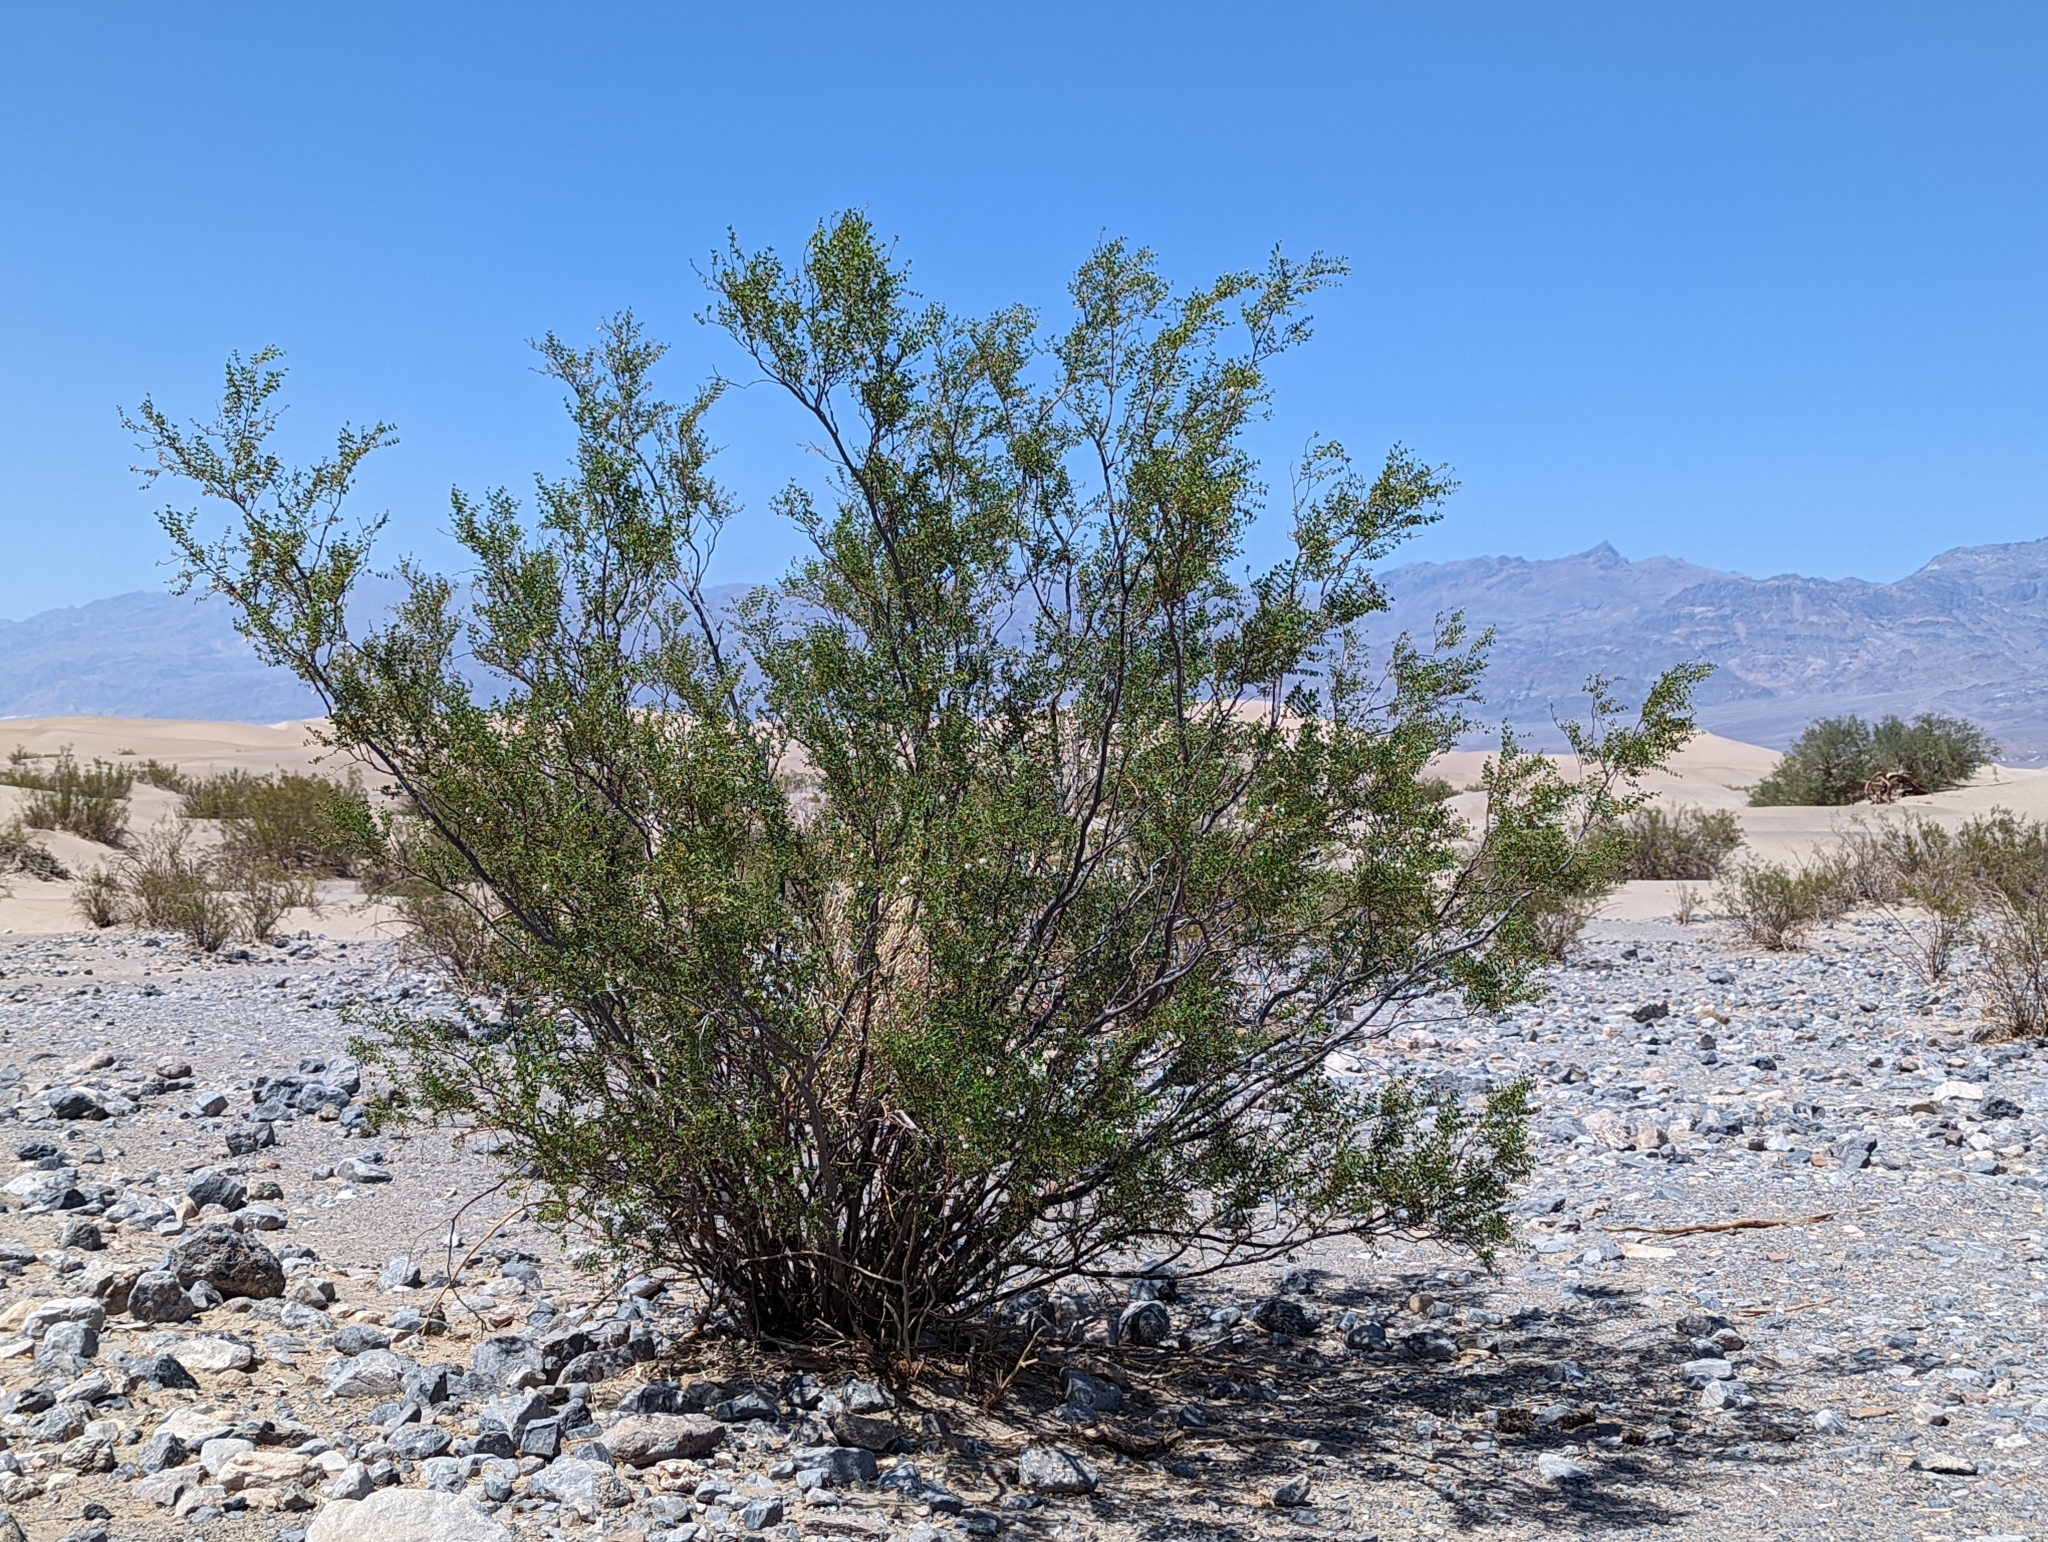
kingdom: Plantae
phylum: Tracheophyta
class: Magnoliopsida
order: Zygophyllales
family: Zygophyllaceae
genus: Larrea
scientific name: Larrea tridentata
